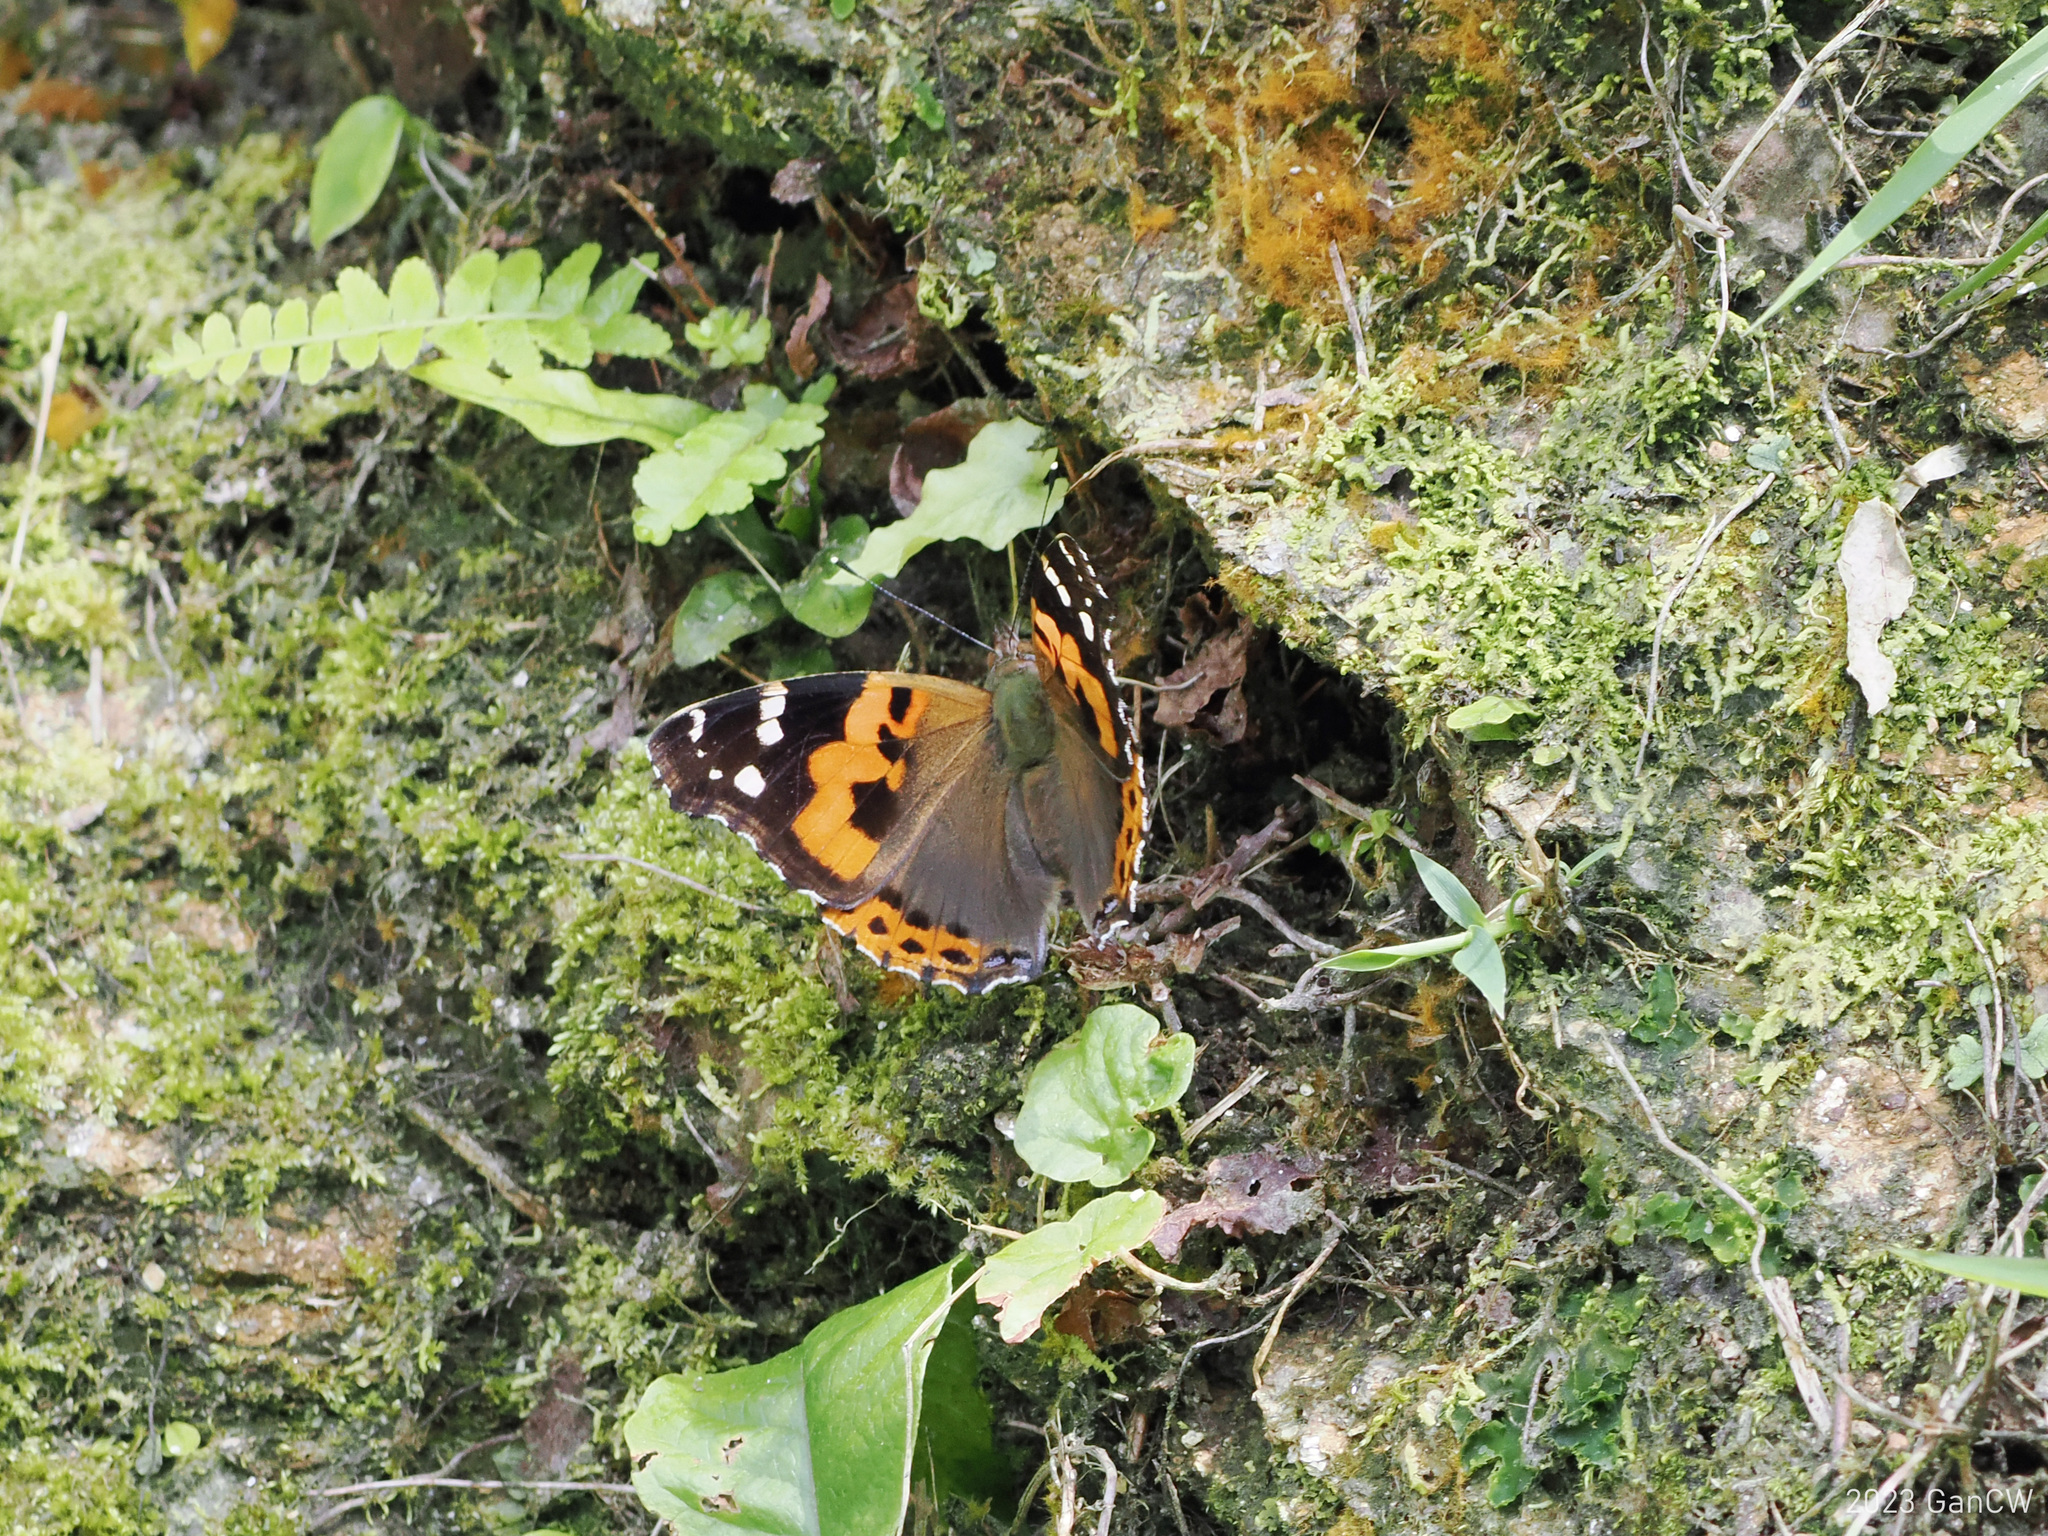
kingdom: Animalia
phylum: Arthropoda
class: Insecta
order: Lepidoptera
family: Nymphalidae
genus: Vanessa
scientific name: Vanessa indica
